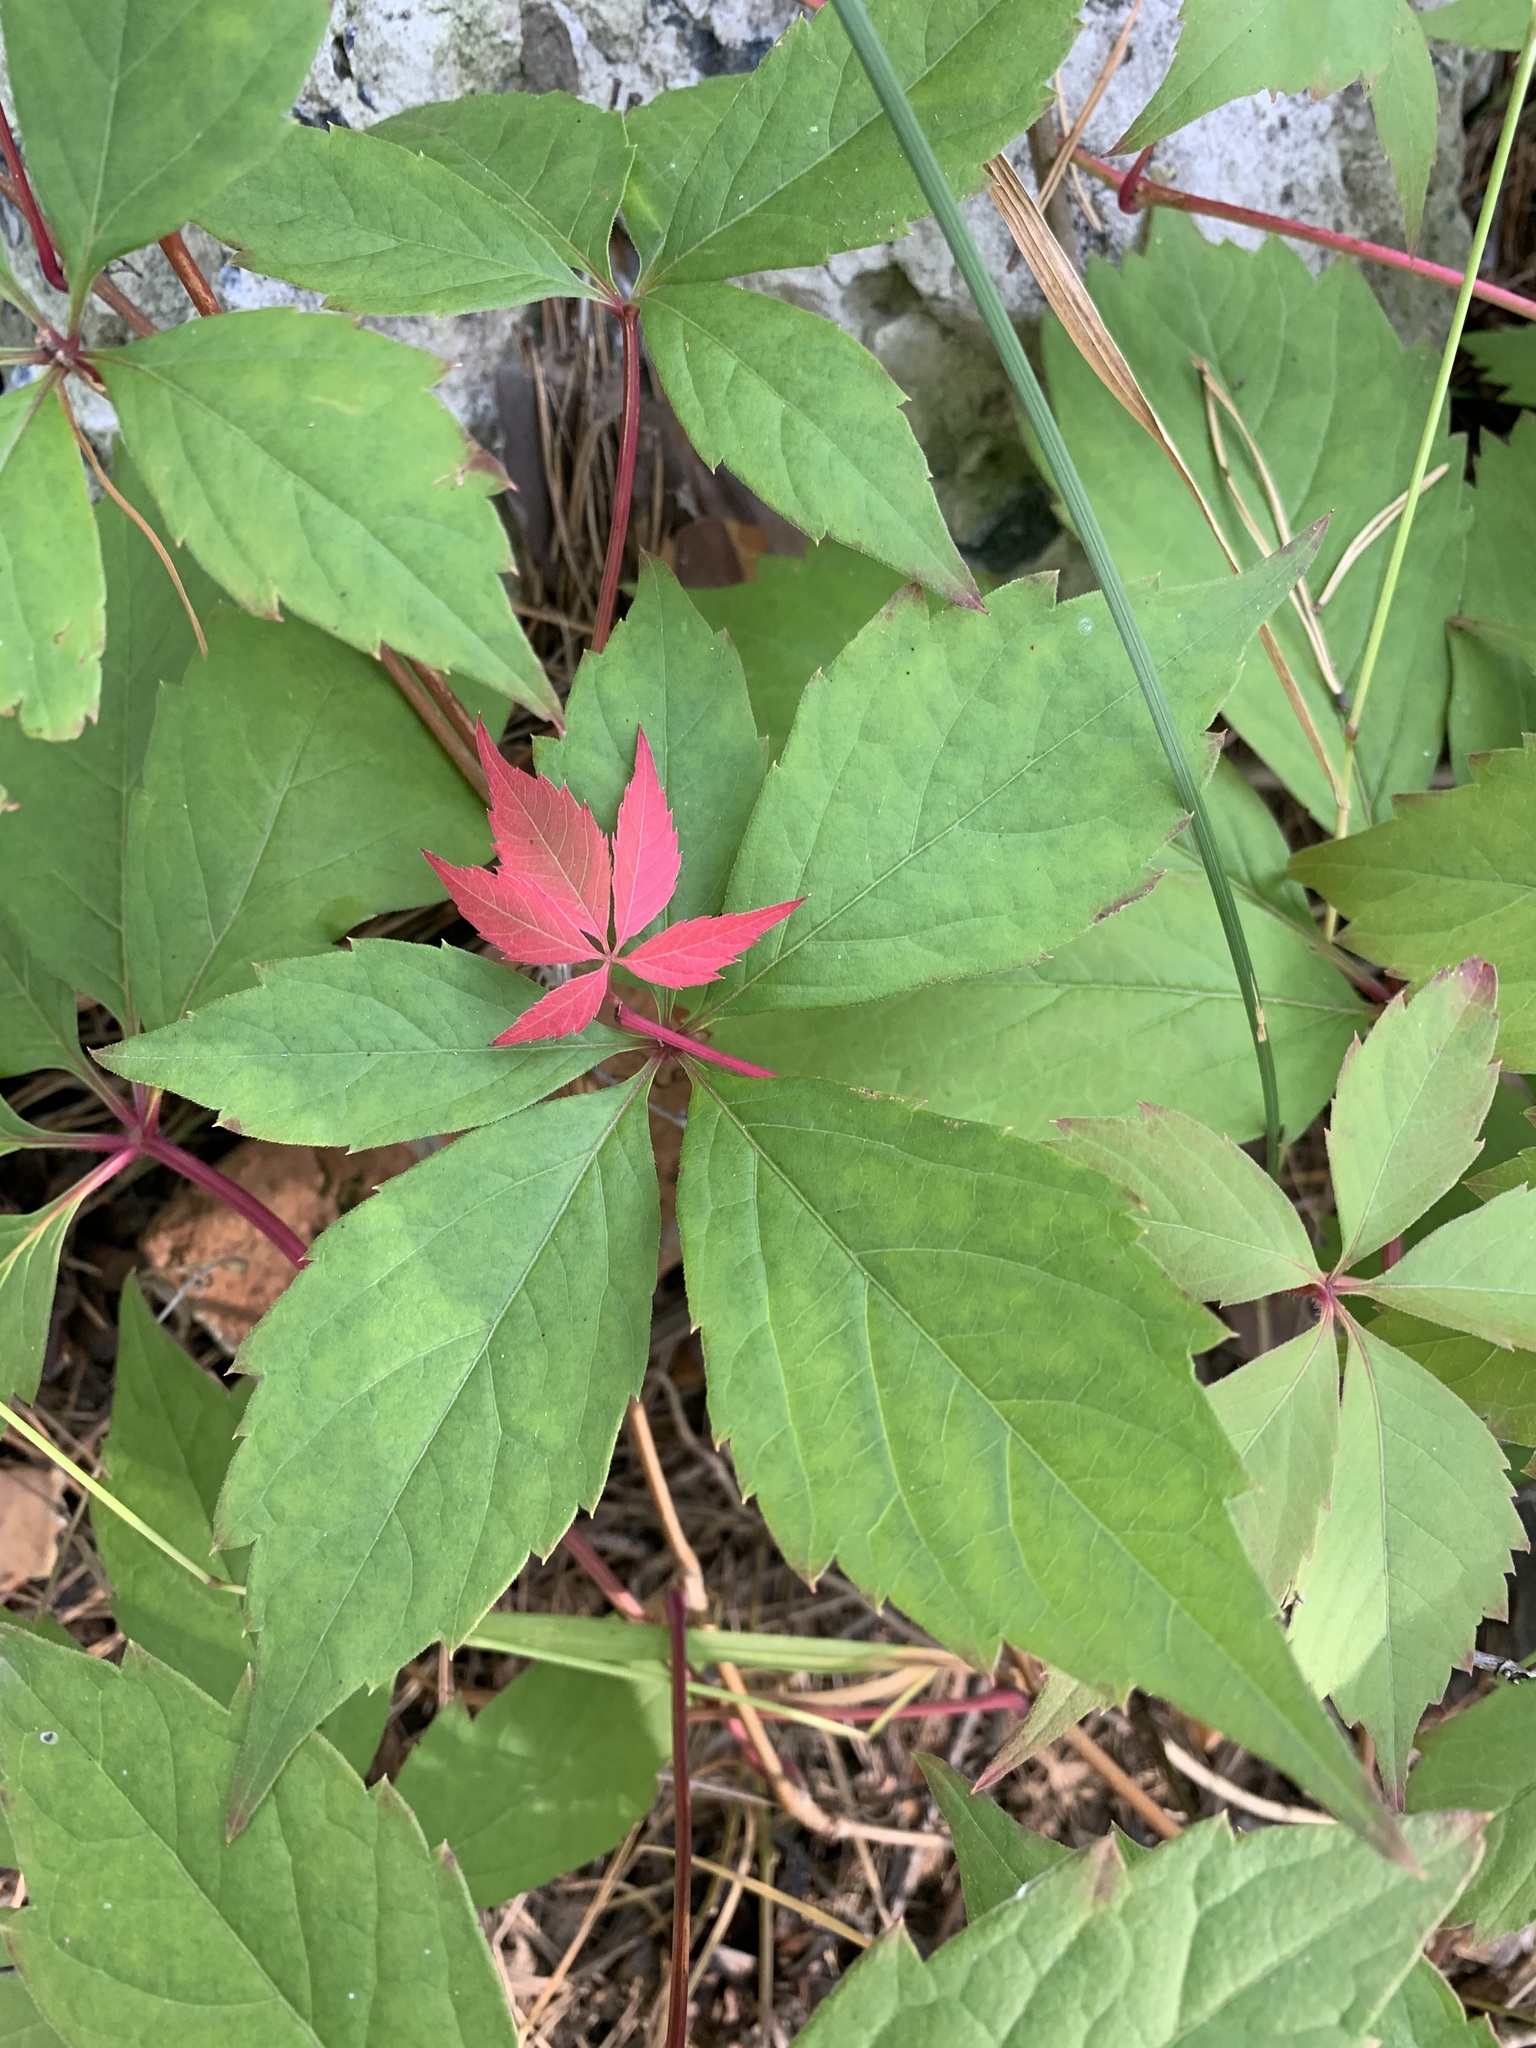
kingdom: Plantae
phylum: Tracheophyta
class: Magnoliopsida
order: Vitales
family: Vitaceae
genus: Parthenocissus
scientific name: Parthenocissus inserta
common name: False virginia-creeper
